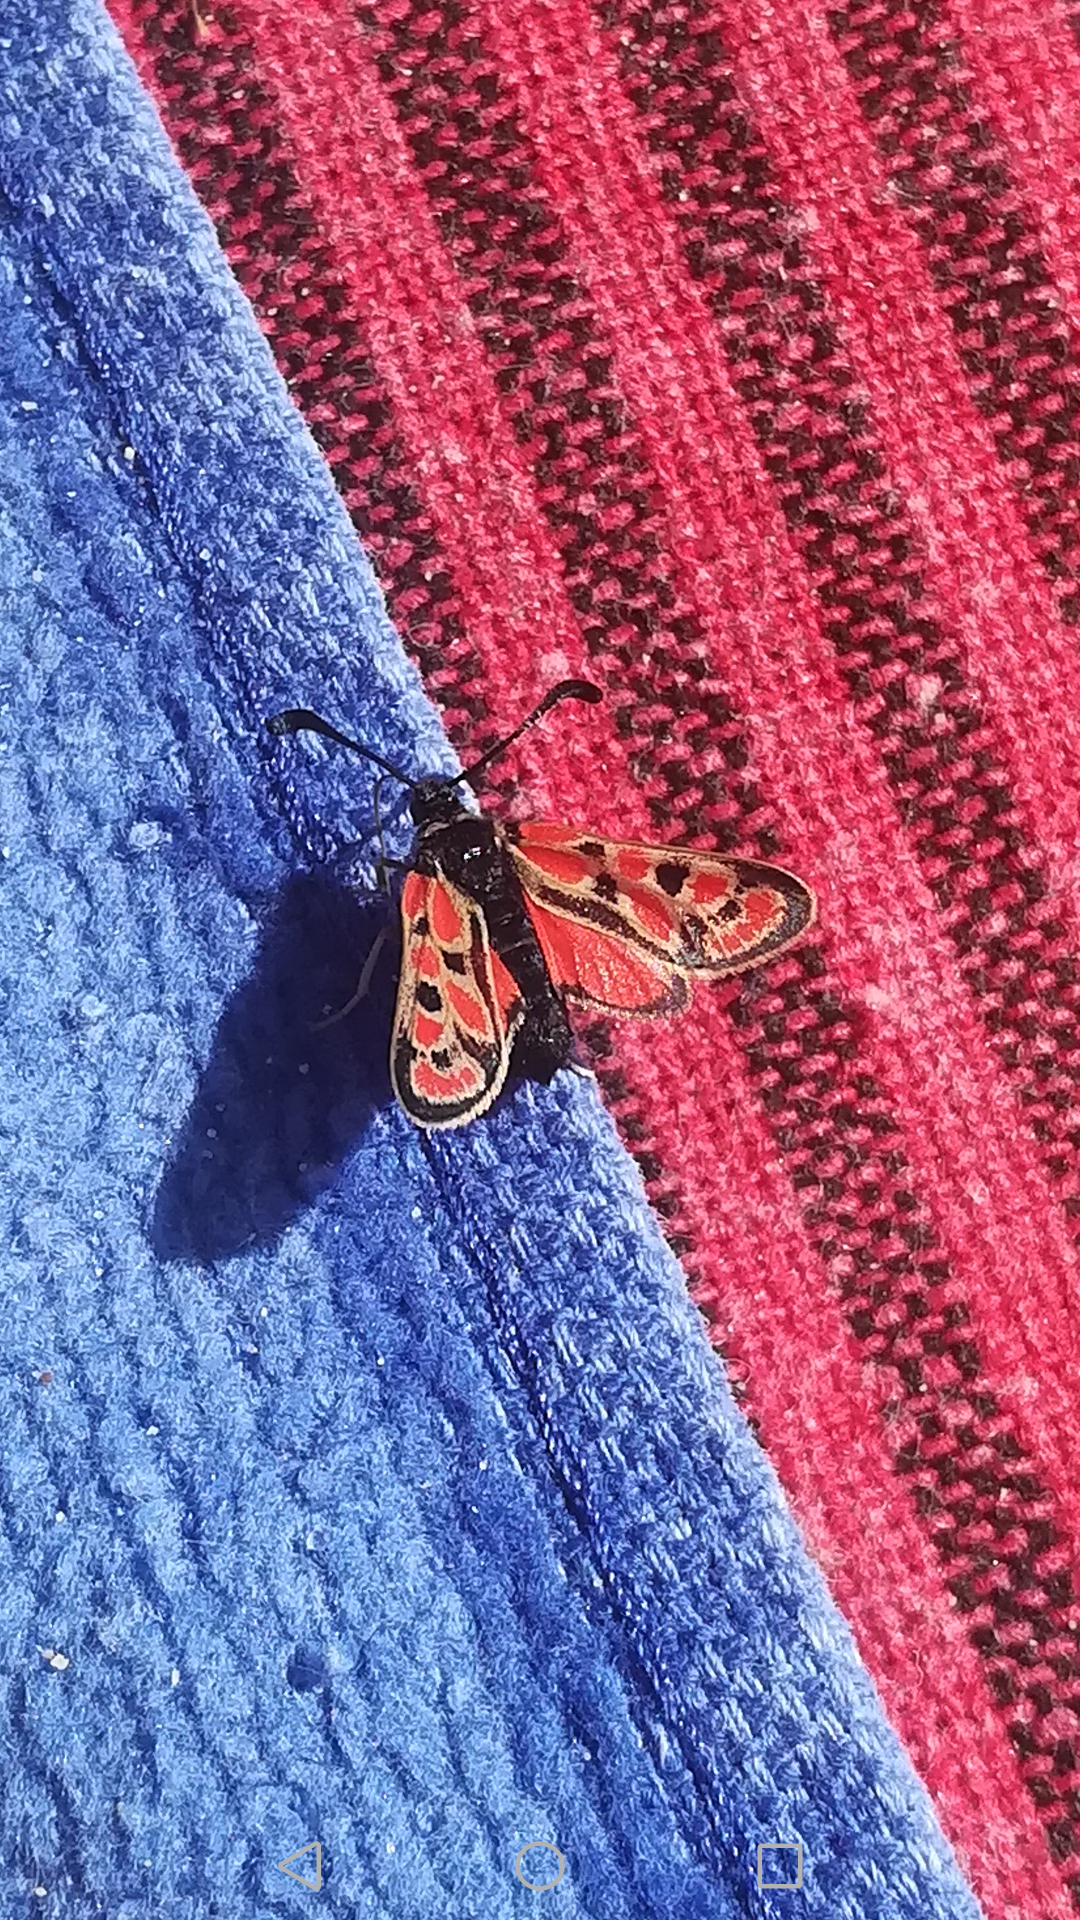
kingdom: Animalia
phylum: Arthropoda
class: Insecta
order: Lepidoptera
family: Zygaenidae
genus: Zygaena
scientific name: Zygaena orana
